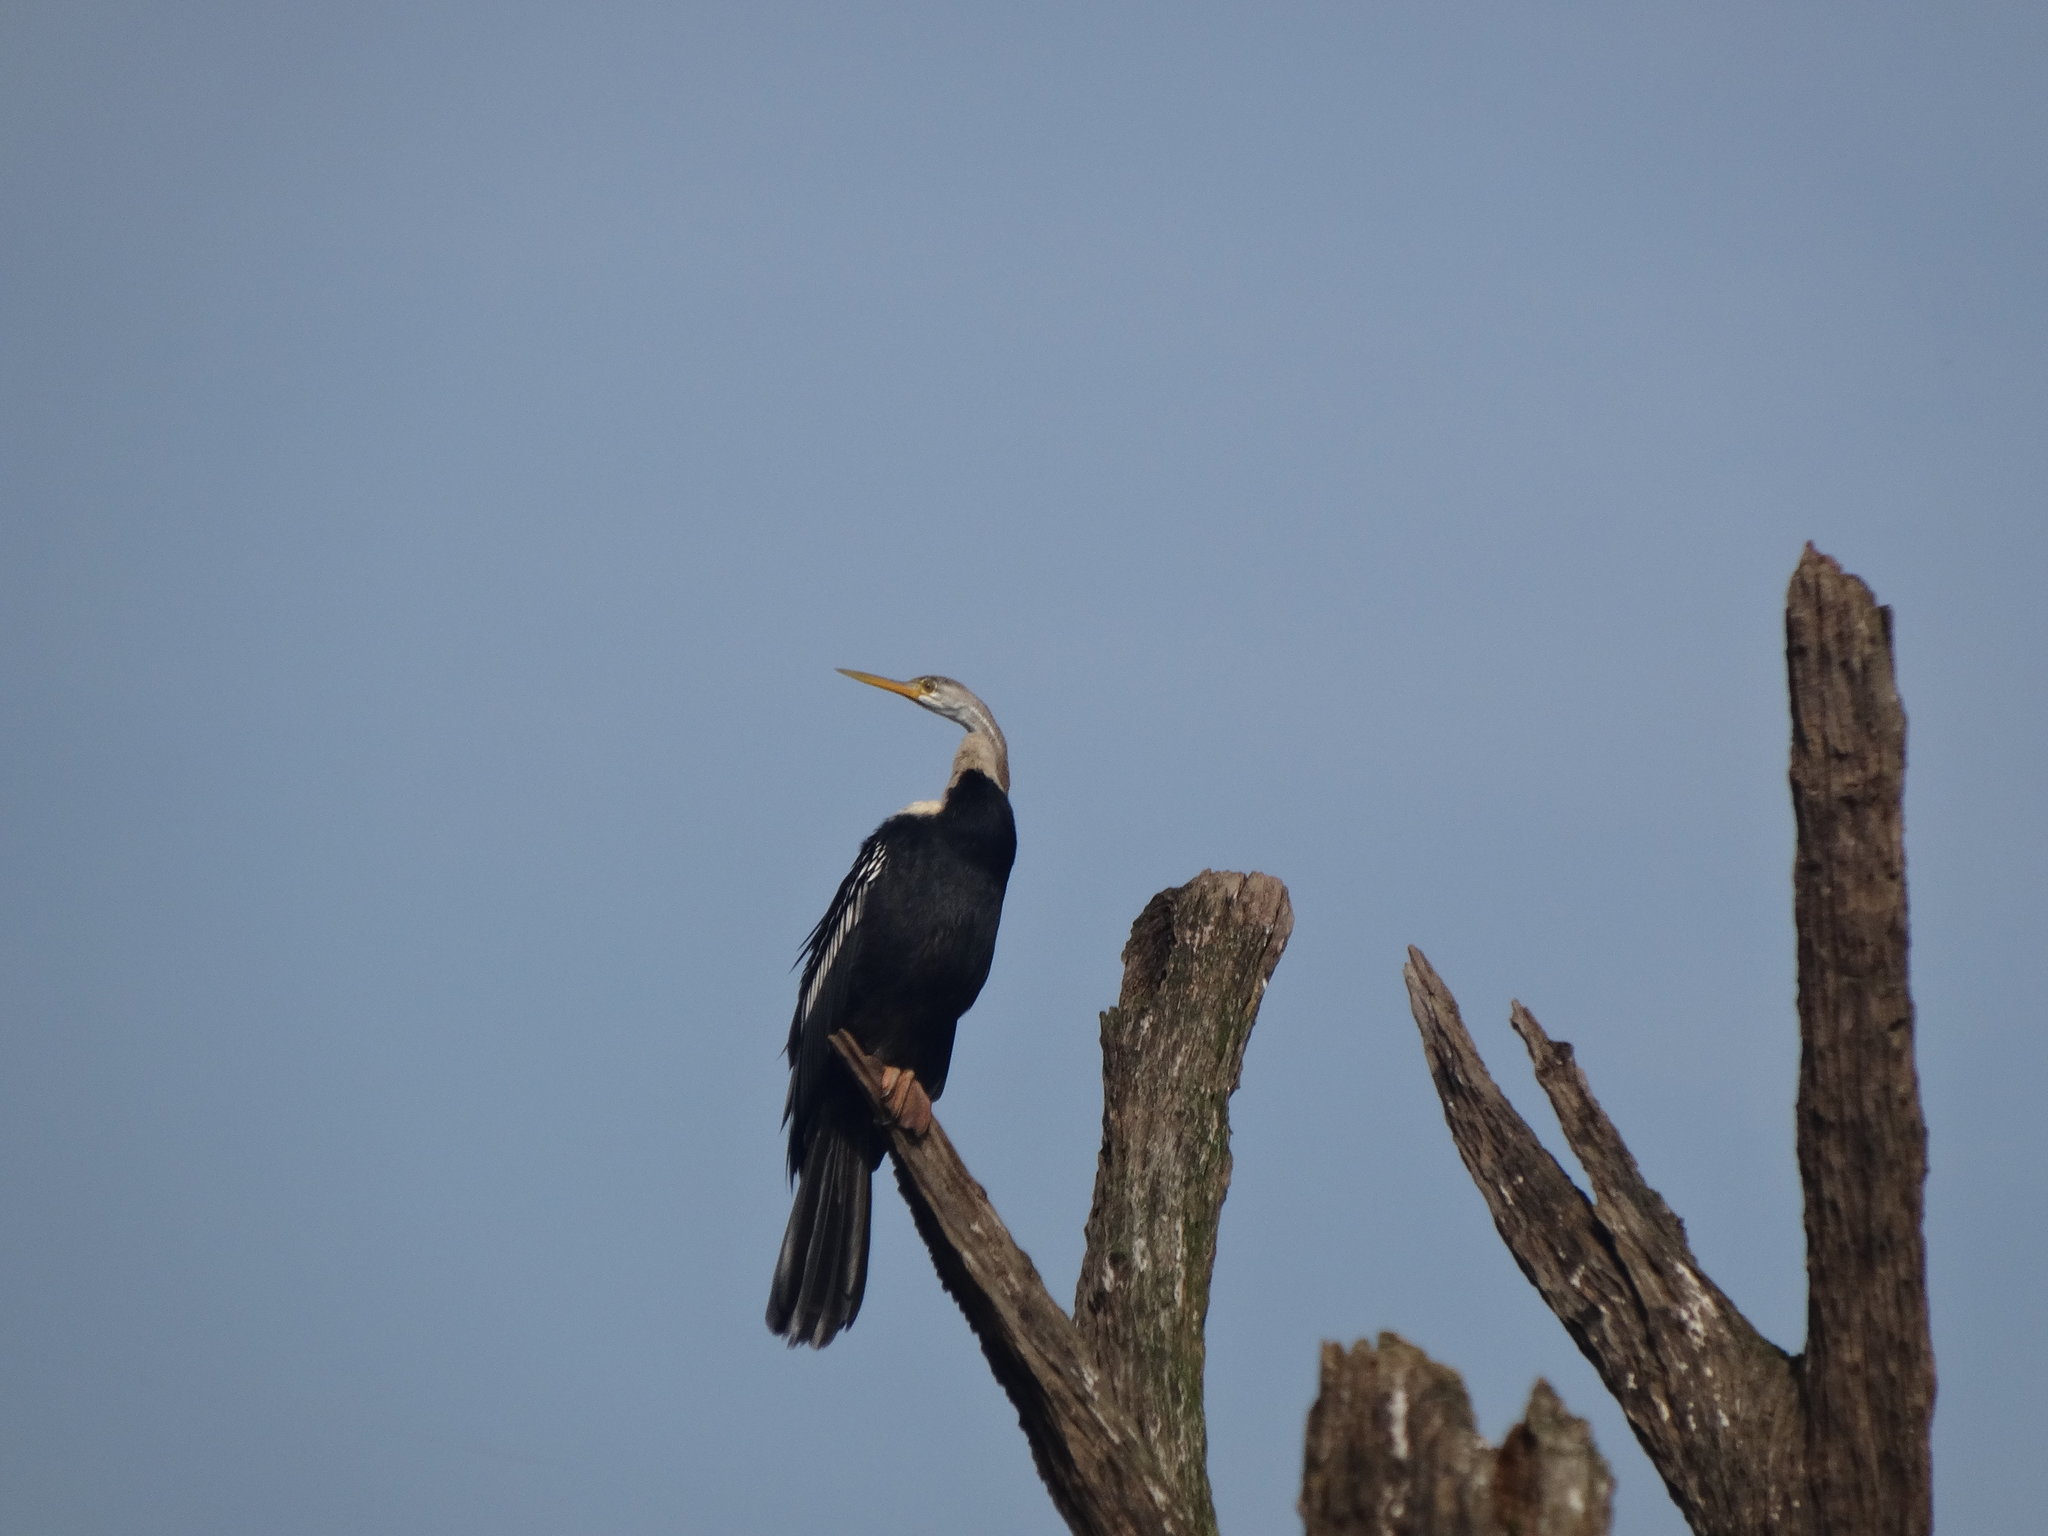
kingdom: Animalia
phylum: Chordata
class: Aves
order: Suliformes
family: Anhingidae
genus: Anhinga
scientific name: Anhinga melanogaster
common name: Oriental darter
